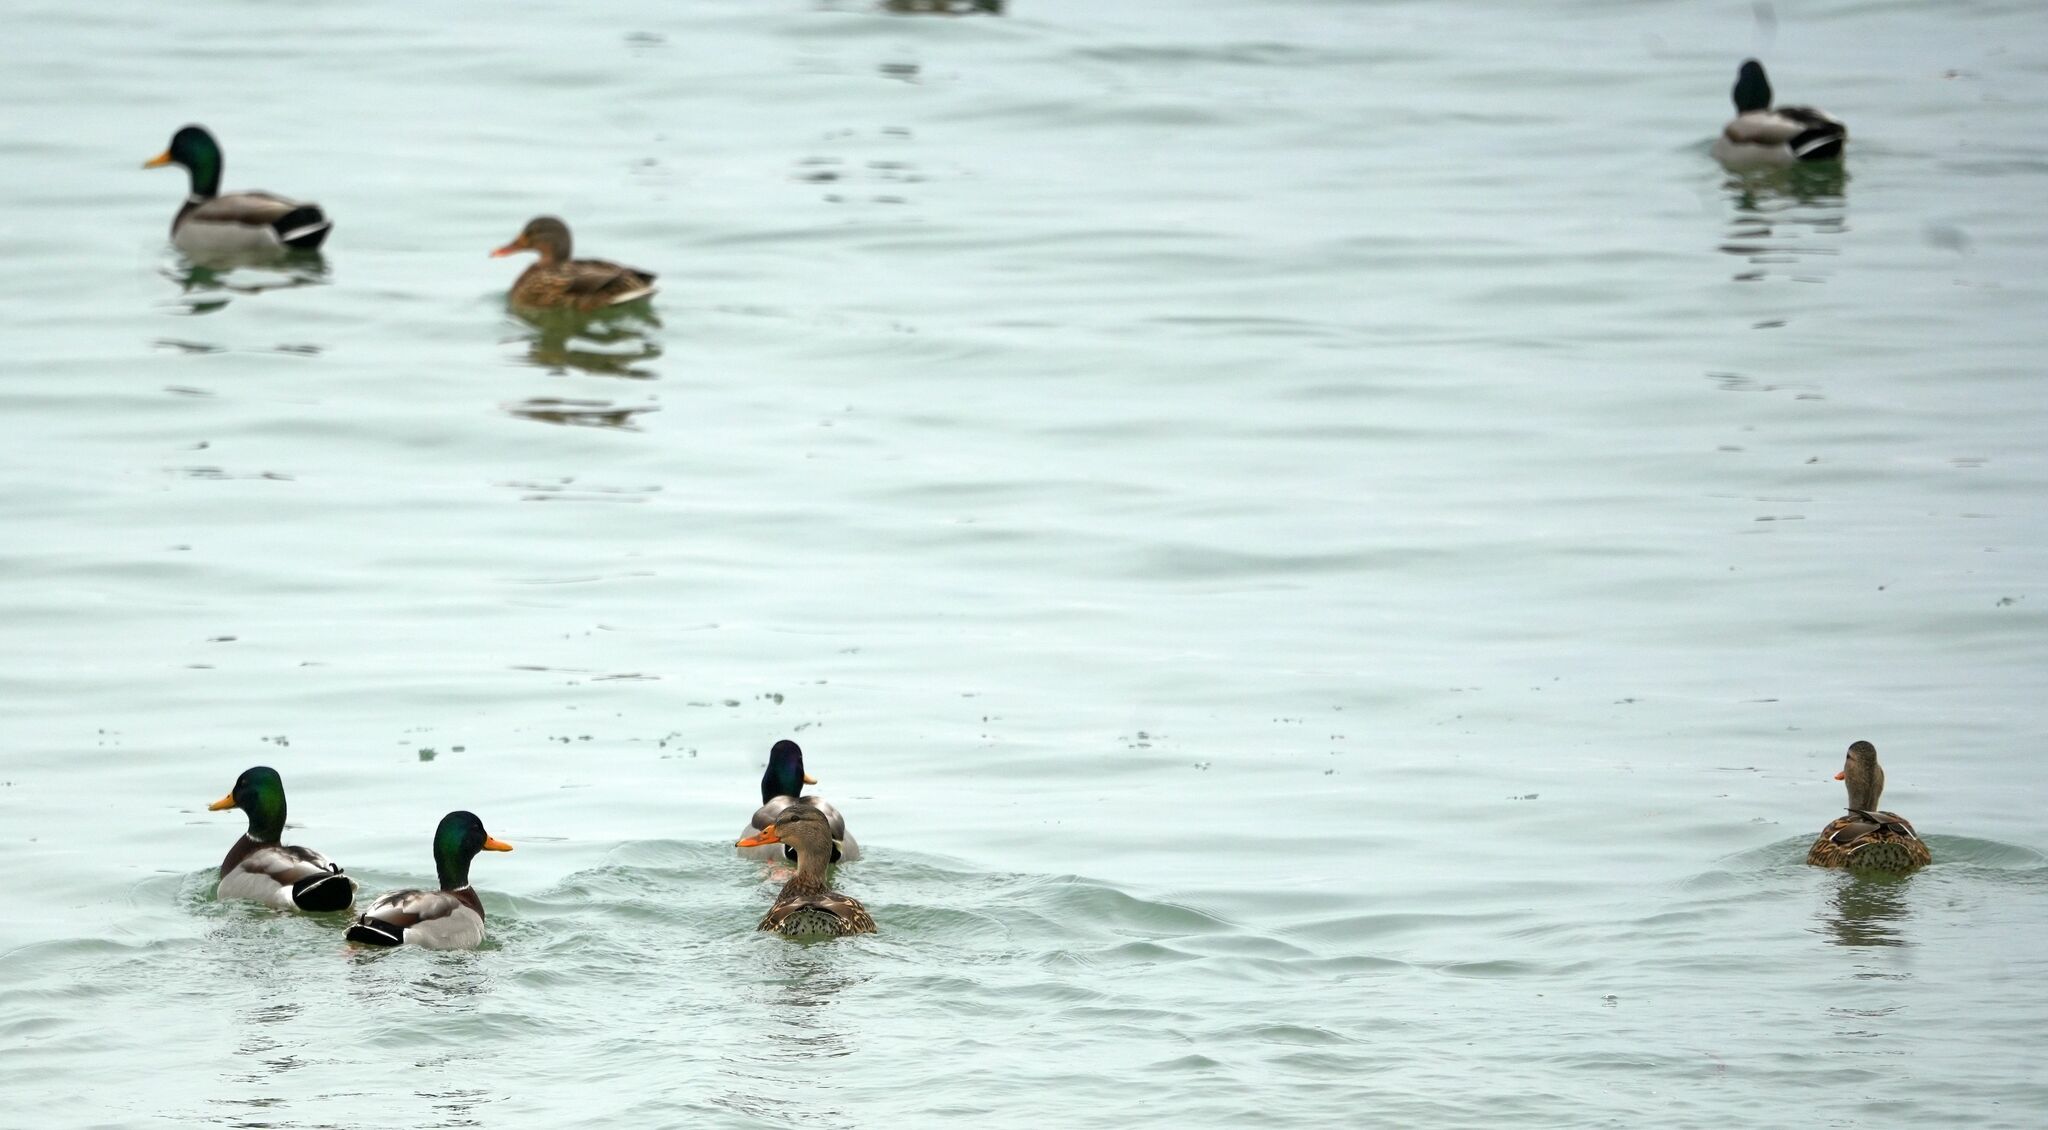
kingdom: Animalia
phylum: Chordata
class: Aves
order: Anseriformes
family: Anatidae
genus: Anas
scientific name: Anas platyrhynchos
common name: Mallard
